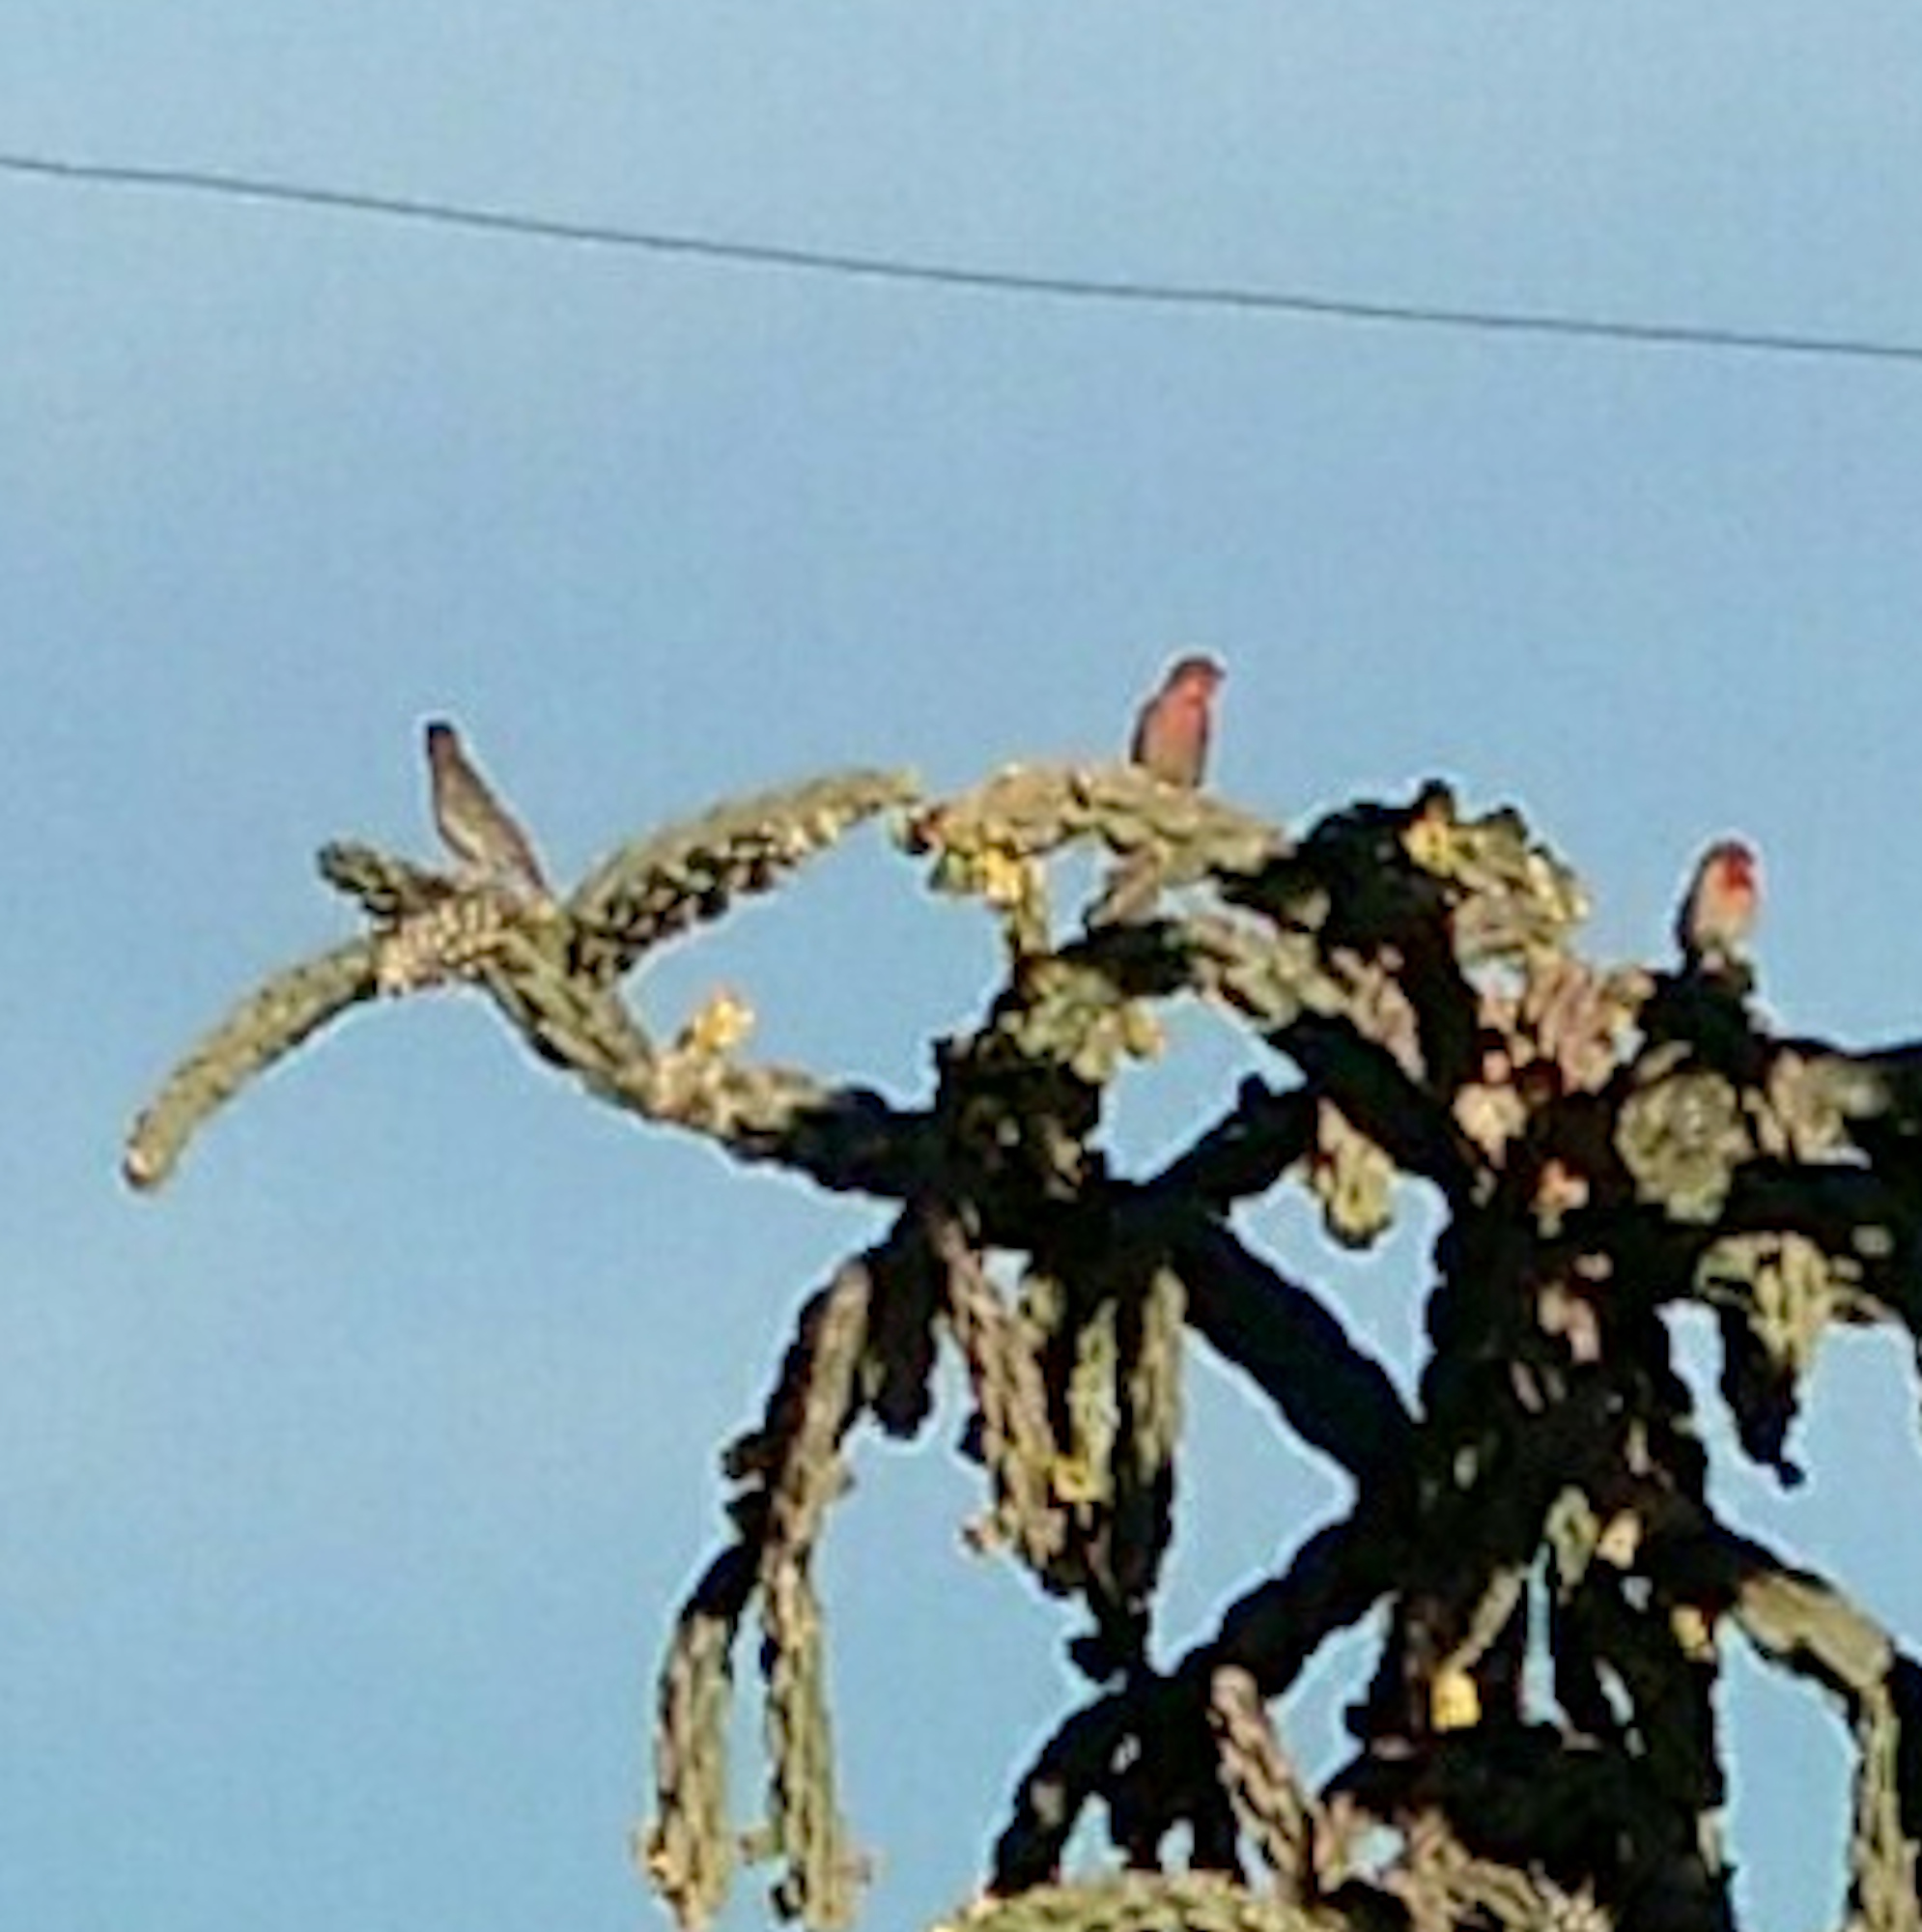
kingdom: Animalia
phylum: Chordata
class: Aves
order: Passeriformes
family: Fringillidae
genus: Haemorhous
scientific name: Haemorhous mexicanus
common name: House finch
